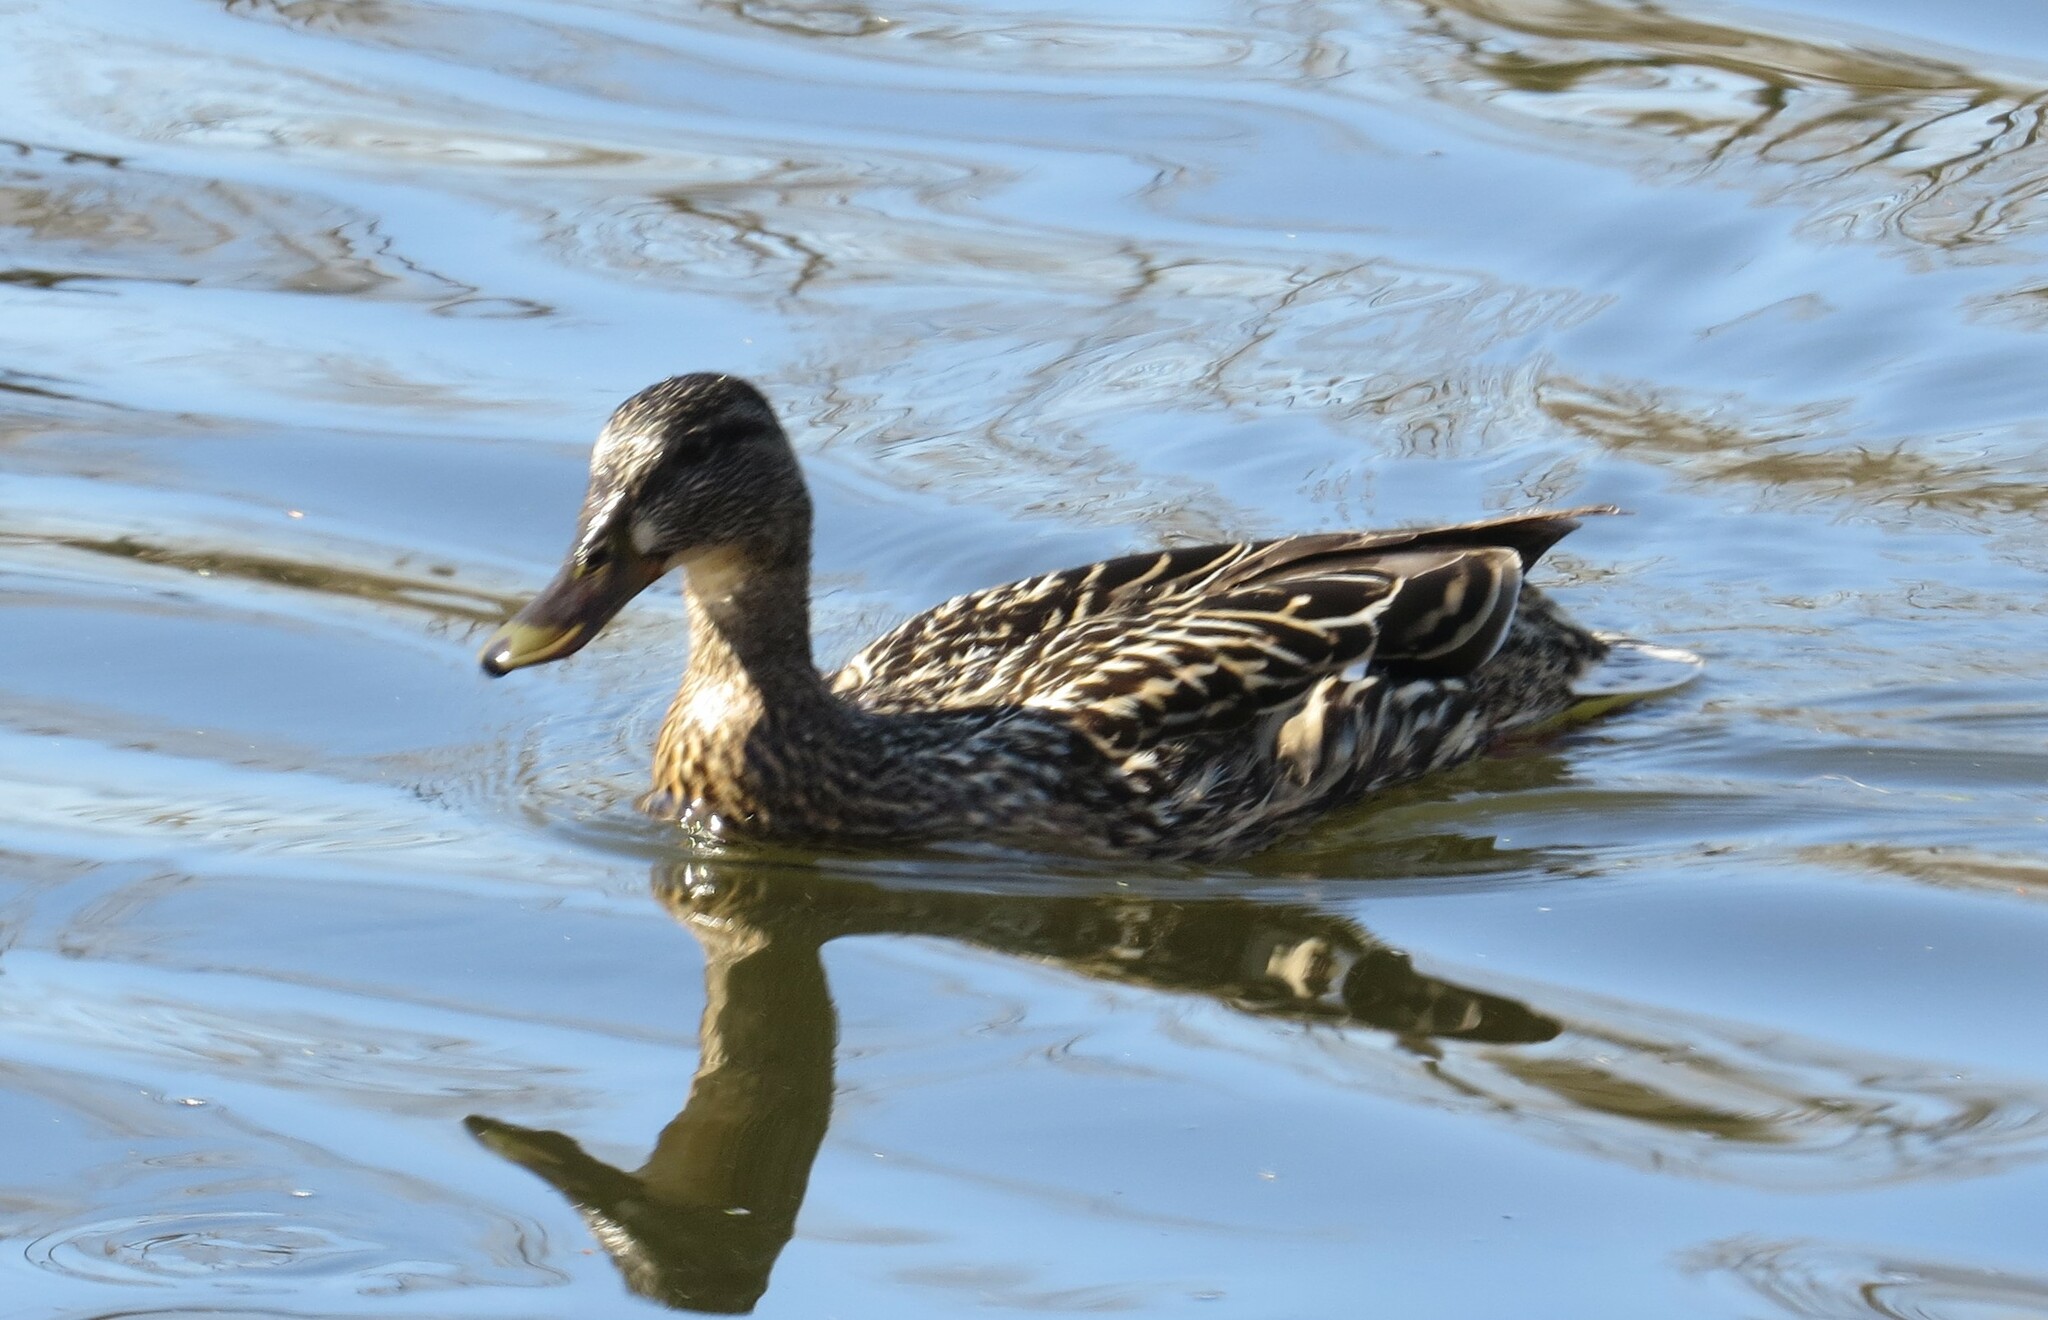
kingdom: Animalia
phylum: Chordata
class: Aves
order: Anseriformes
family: Anatidae
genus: Anas
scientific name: Anas platyrhynchos
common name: Mallard
